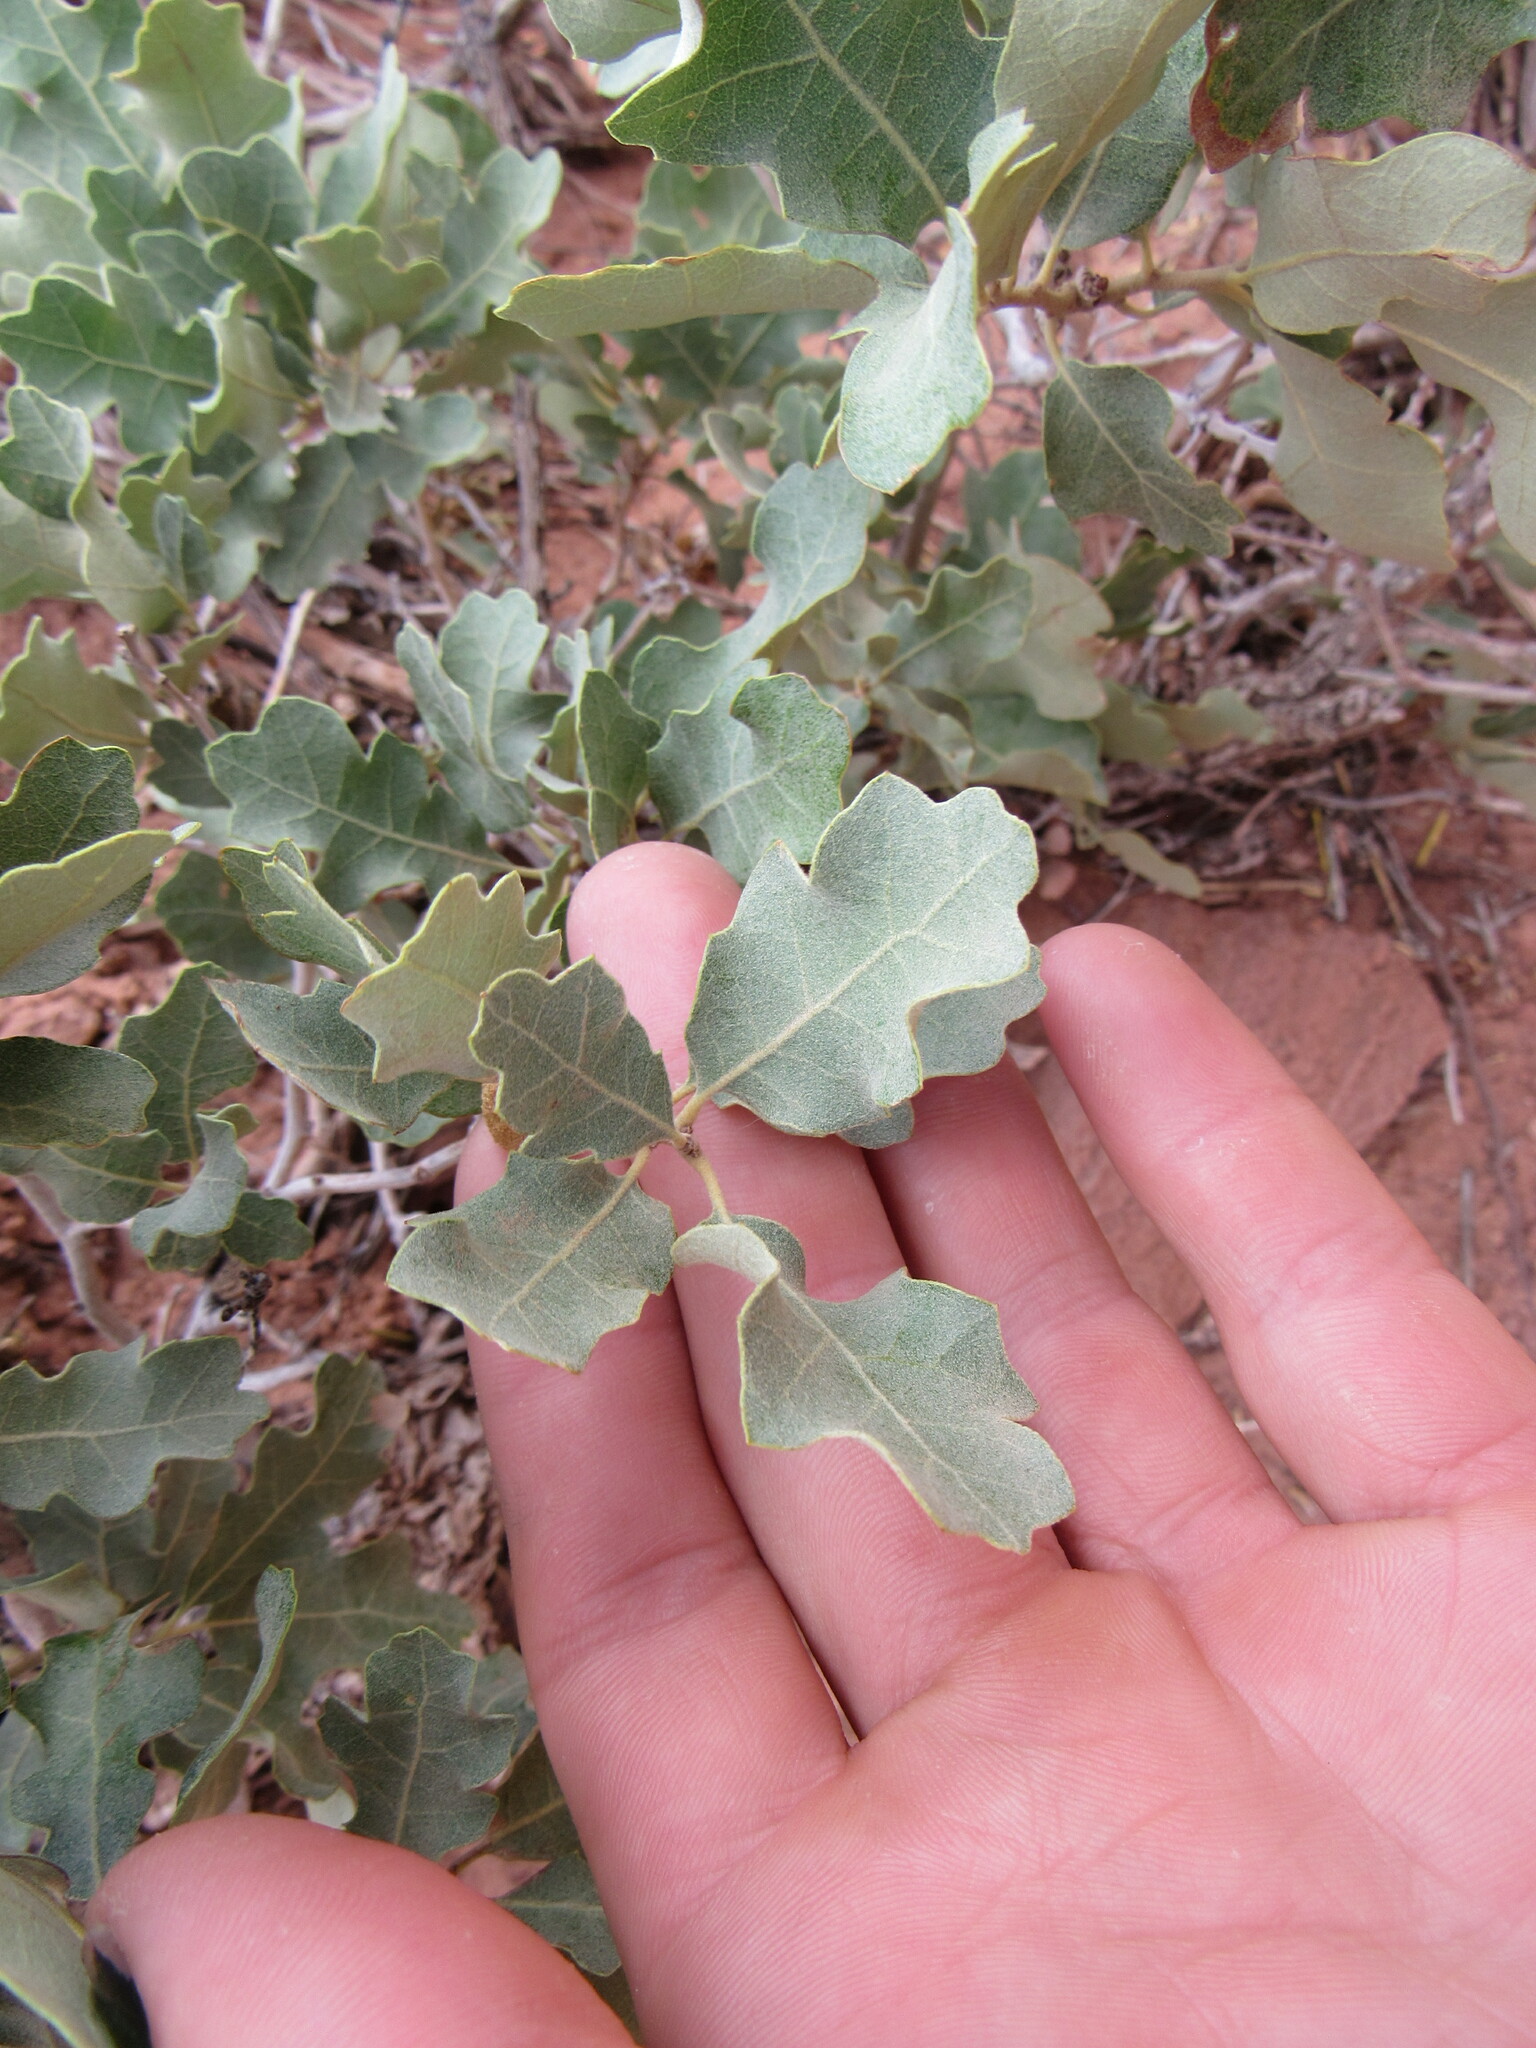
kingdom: Plantae
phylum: Tracheophyta
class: Magnoliopsida
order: Fagales
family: Fagaceae
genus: Quercus
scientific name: Quercus welshii
